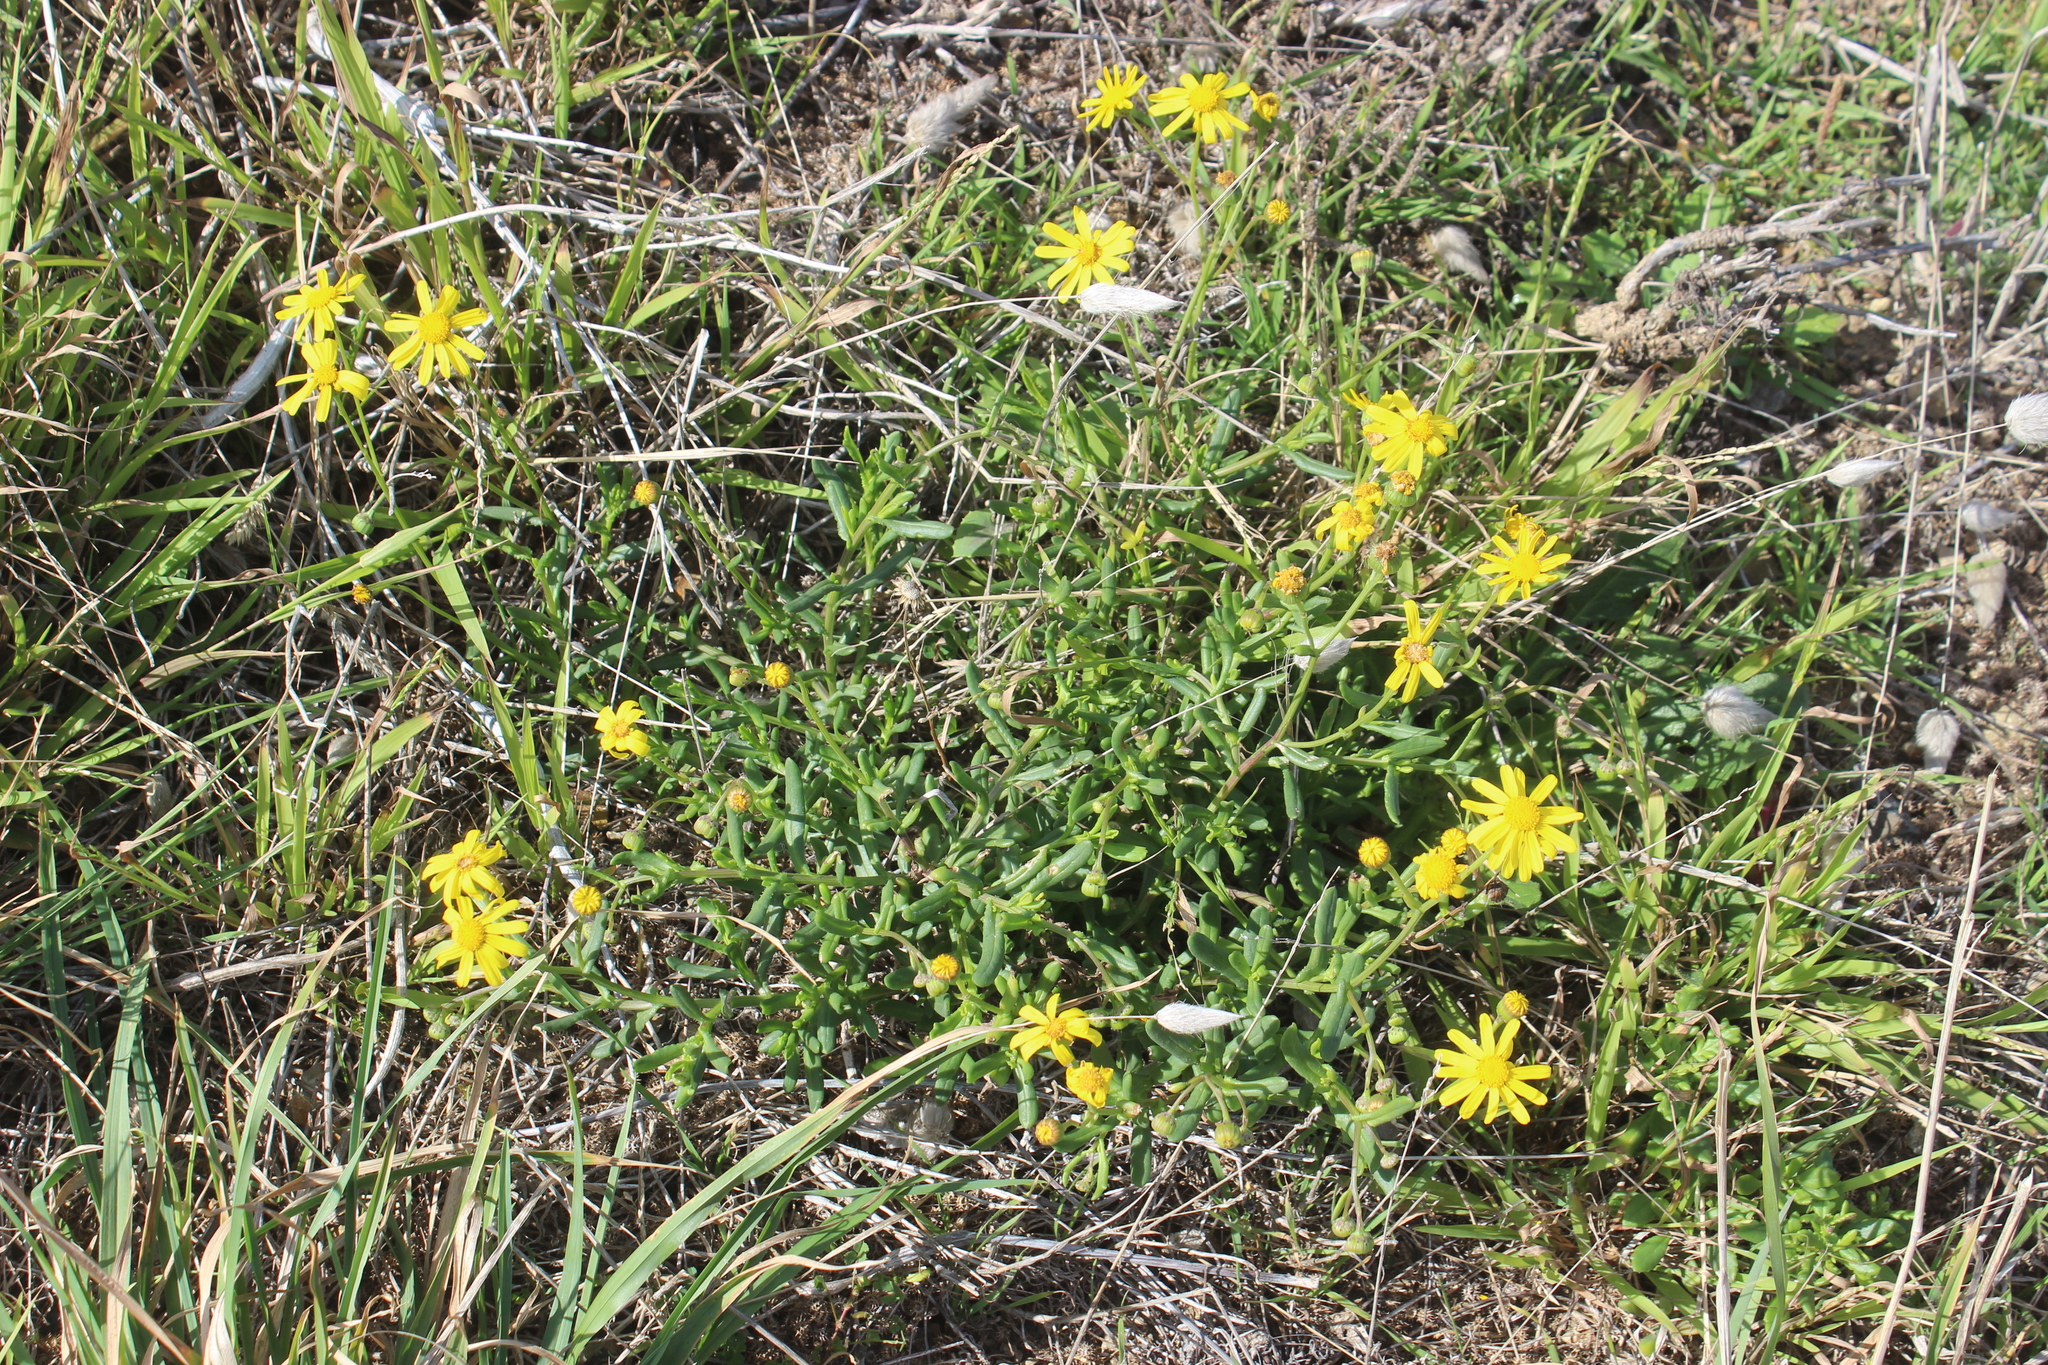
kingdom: Plantae
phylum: Tracheophyta
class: Magnoliopsida
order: Asterales
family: Asteraceae
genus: Senecio
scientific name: Senecio skirrhodon
